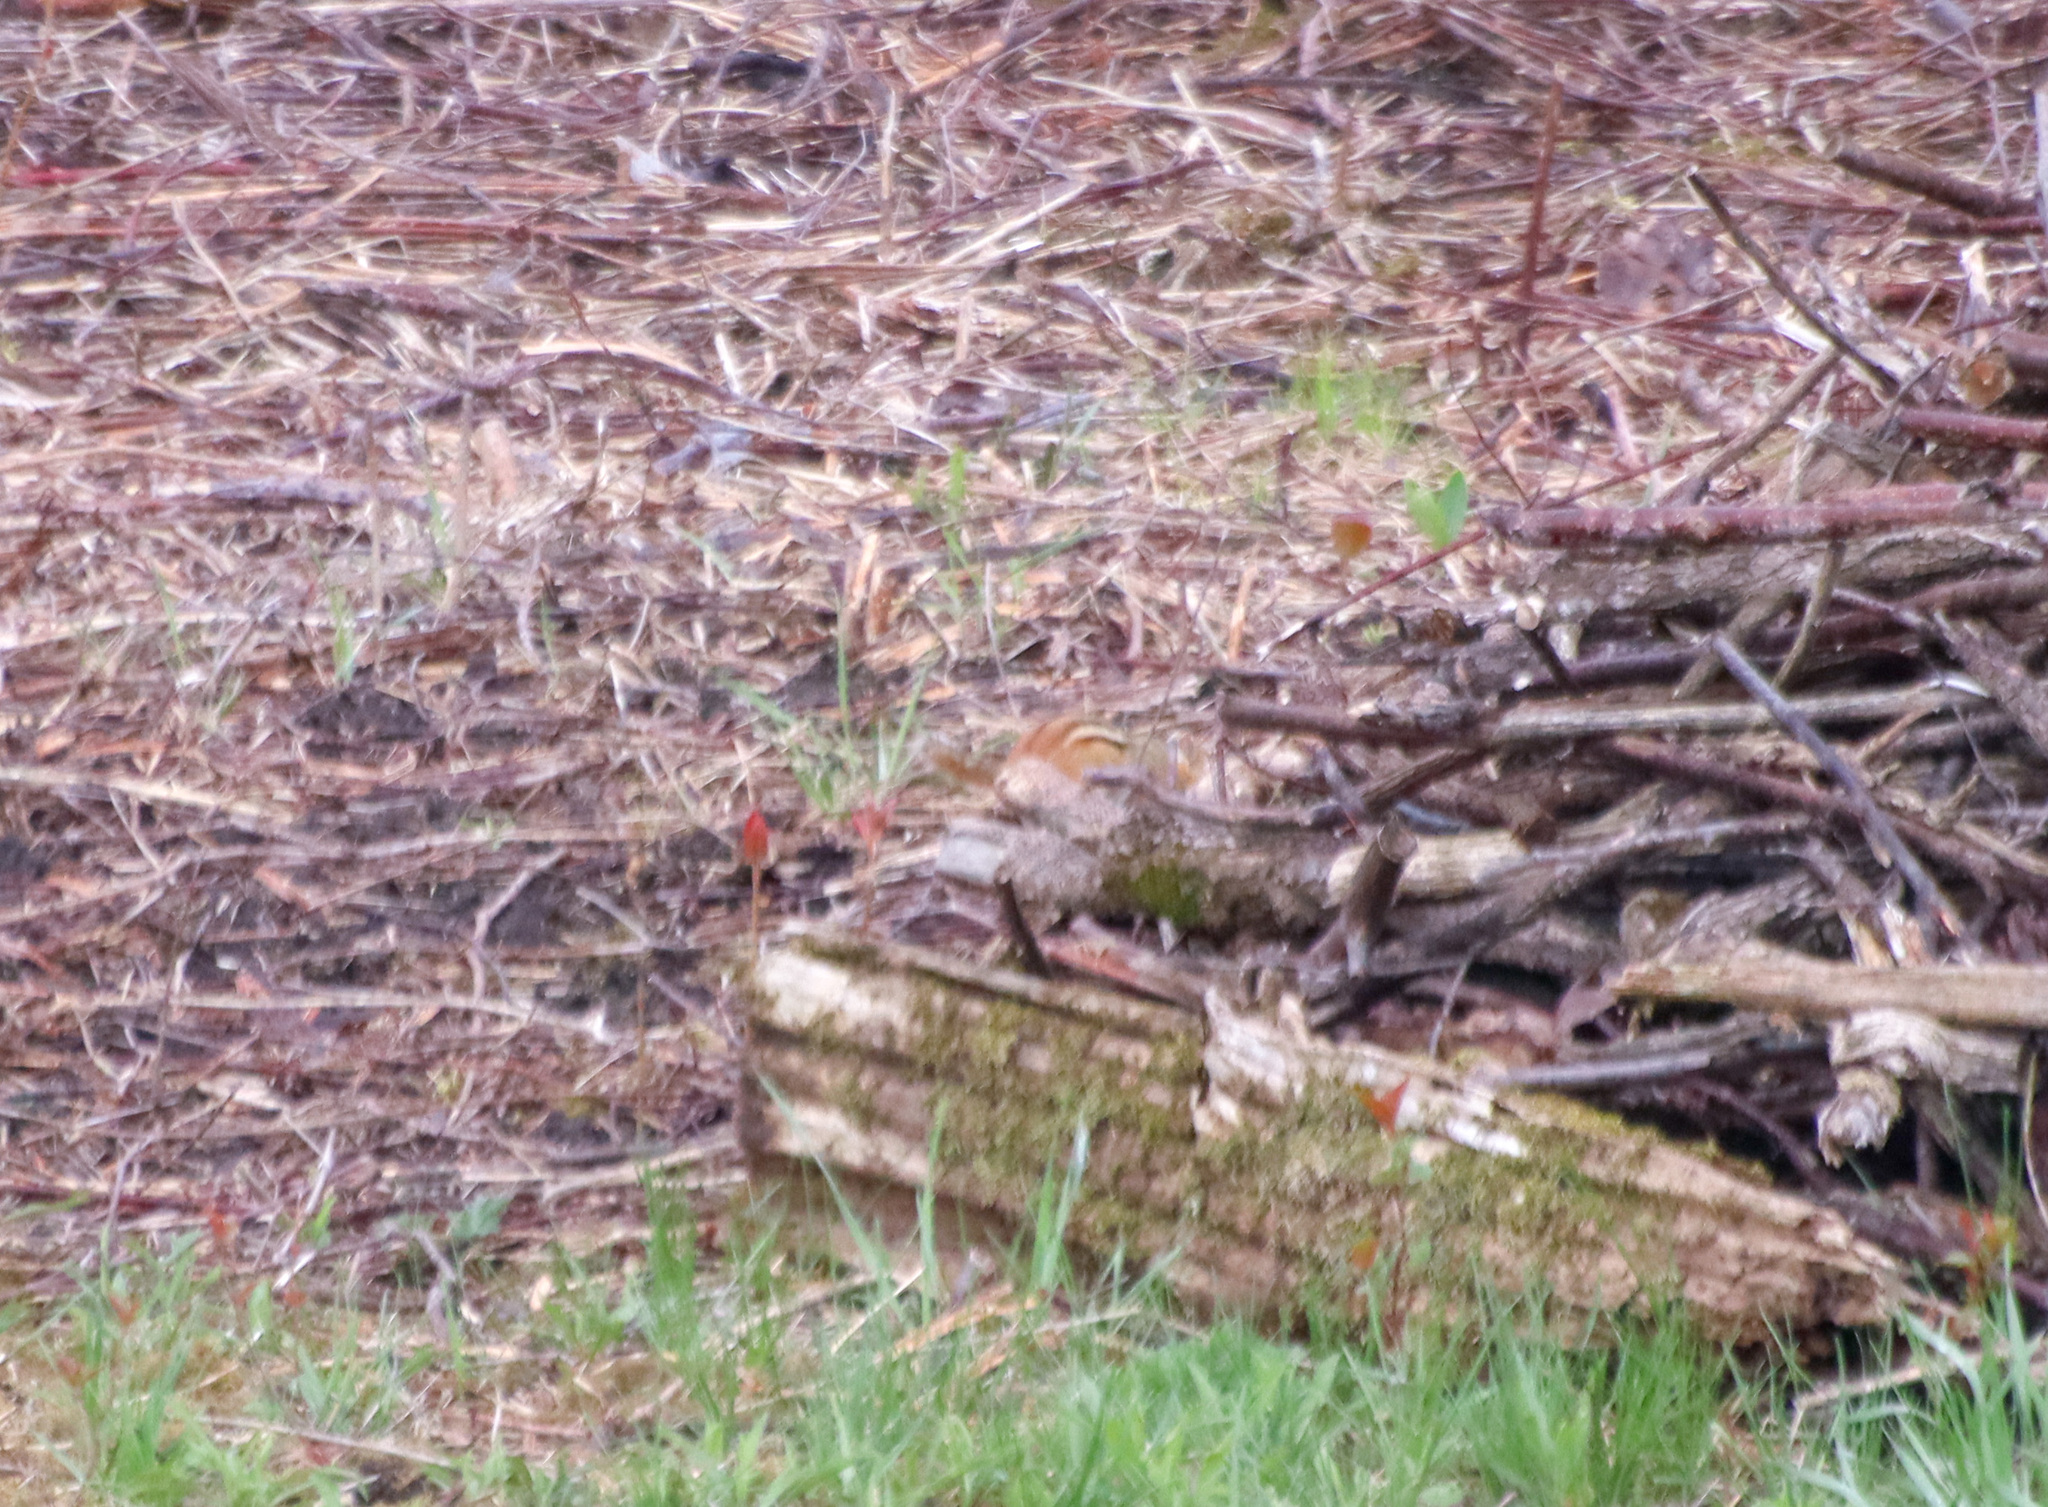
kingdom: Animalia
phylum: Chordata
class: Mammalia
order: Rodentia
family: Sciuridae
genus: Tamias
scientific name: Tamias striatus
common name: Eastern chipmunk
